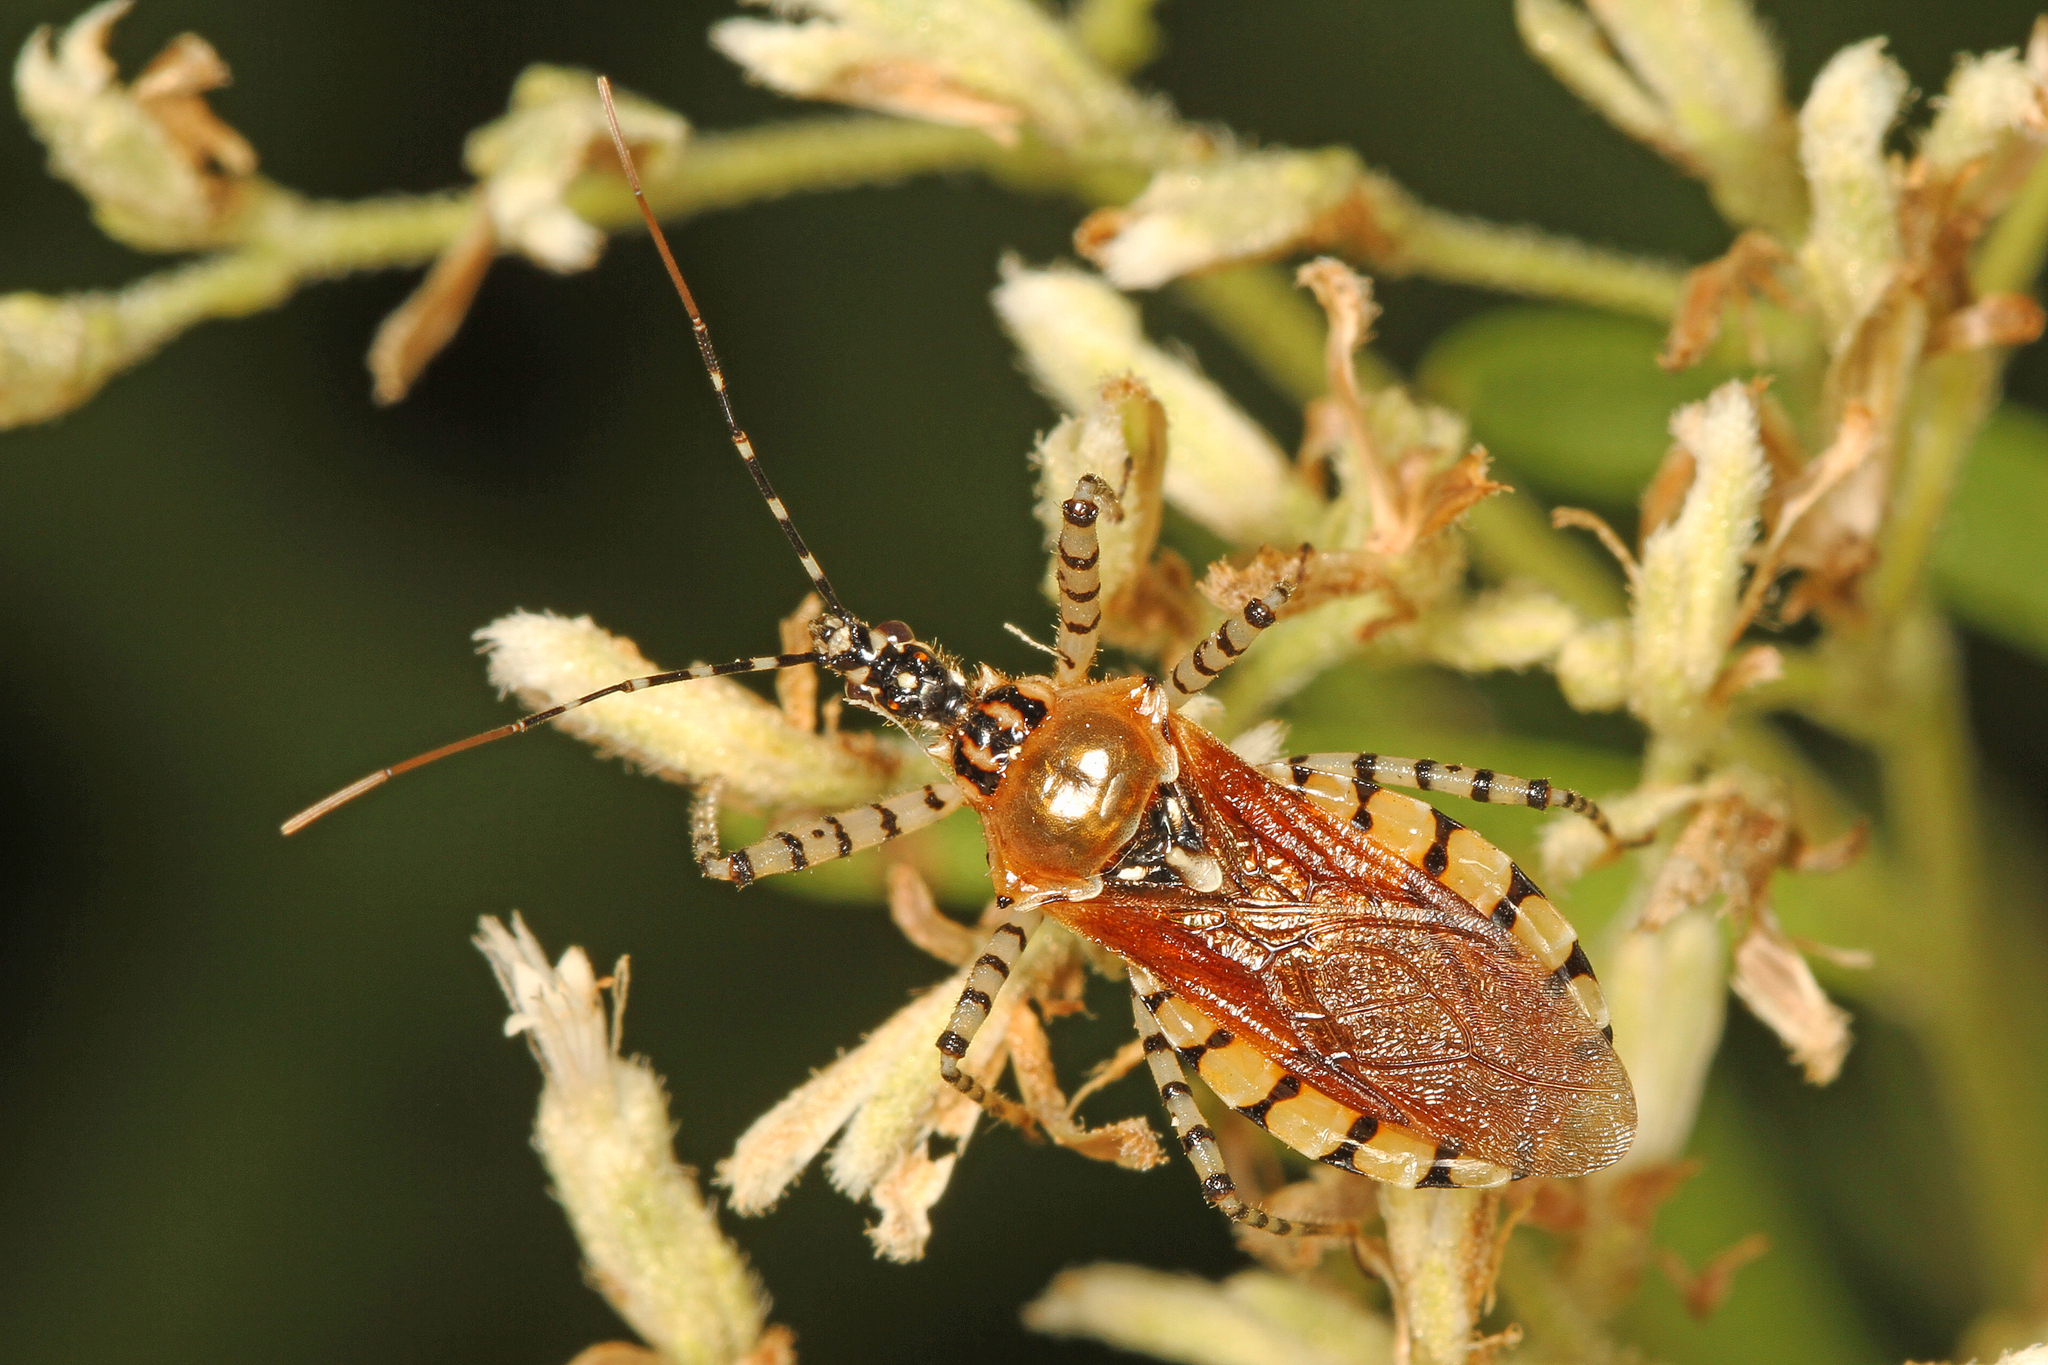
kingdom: Animalia
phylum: Arthropoda
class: Insecta
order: Hemiptera
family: Reduviidae
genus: Pselliopus
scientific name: Pselliopus cinctus
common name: Ringed assassin bug
